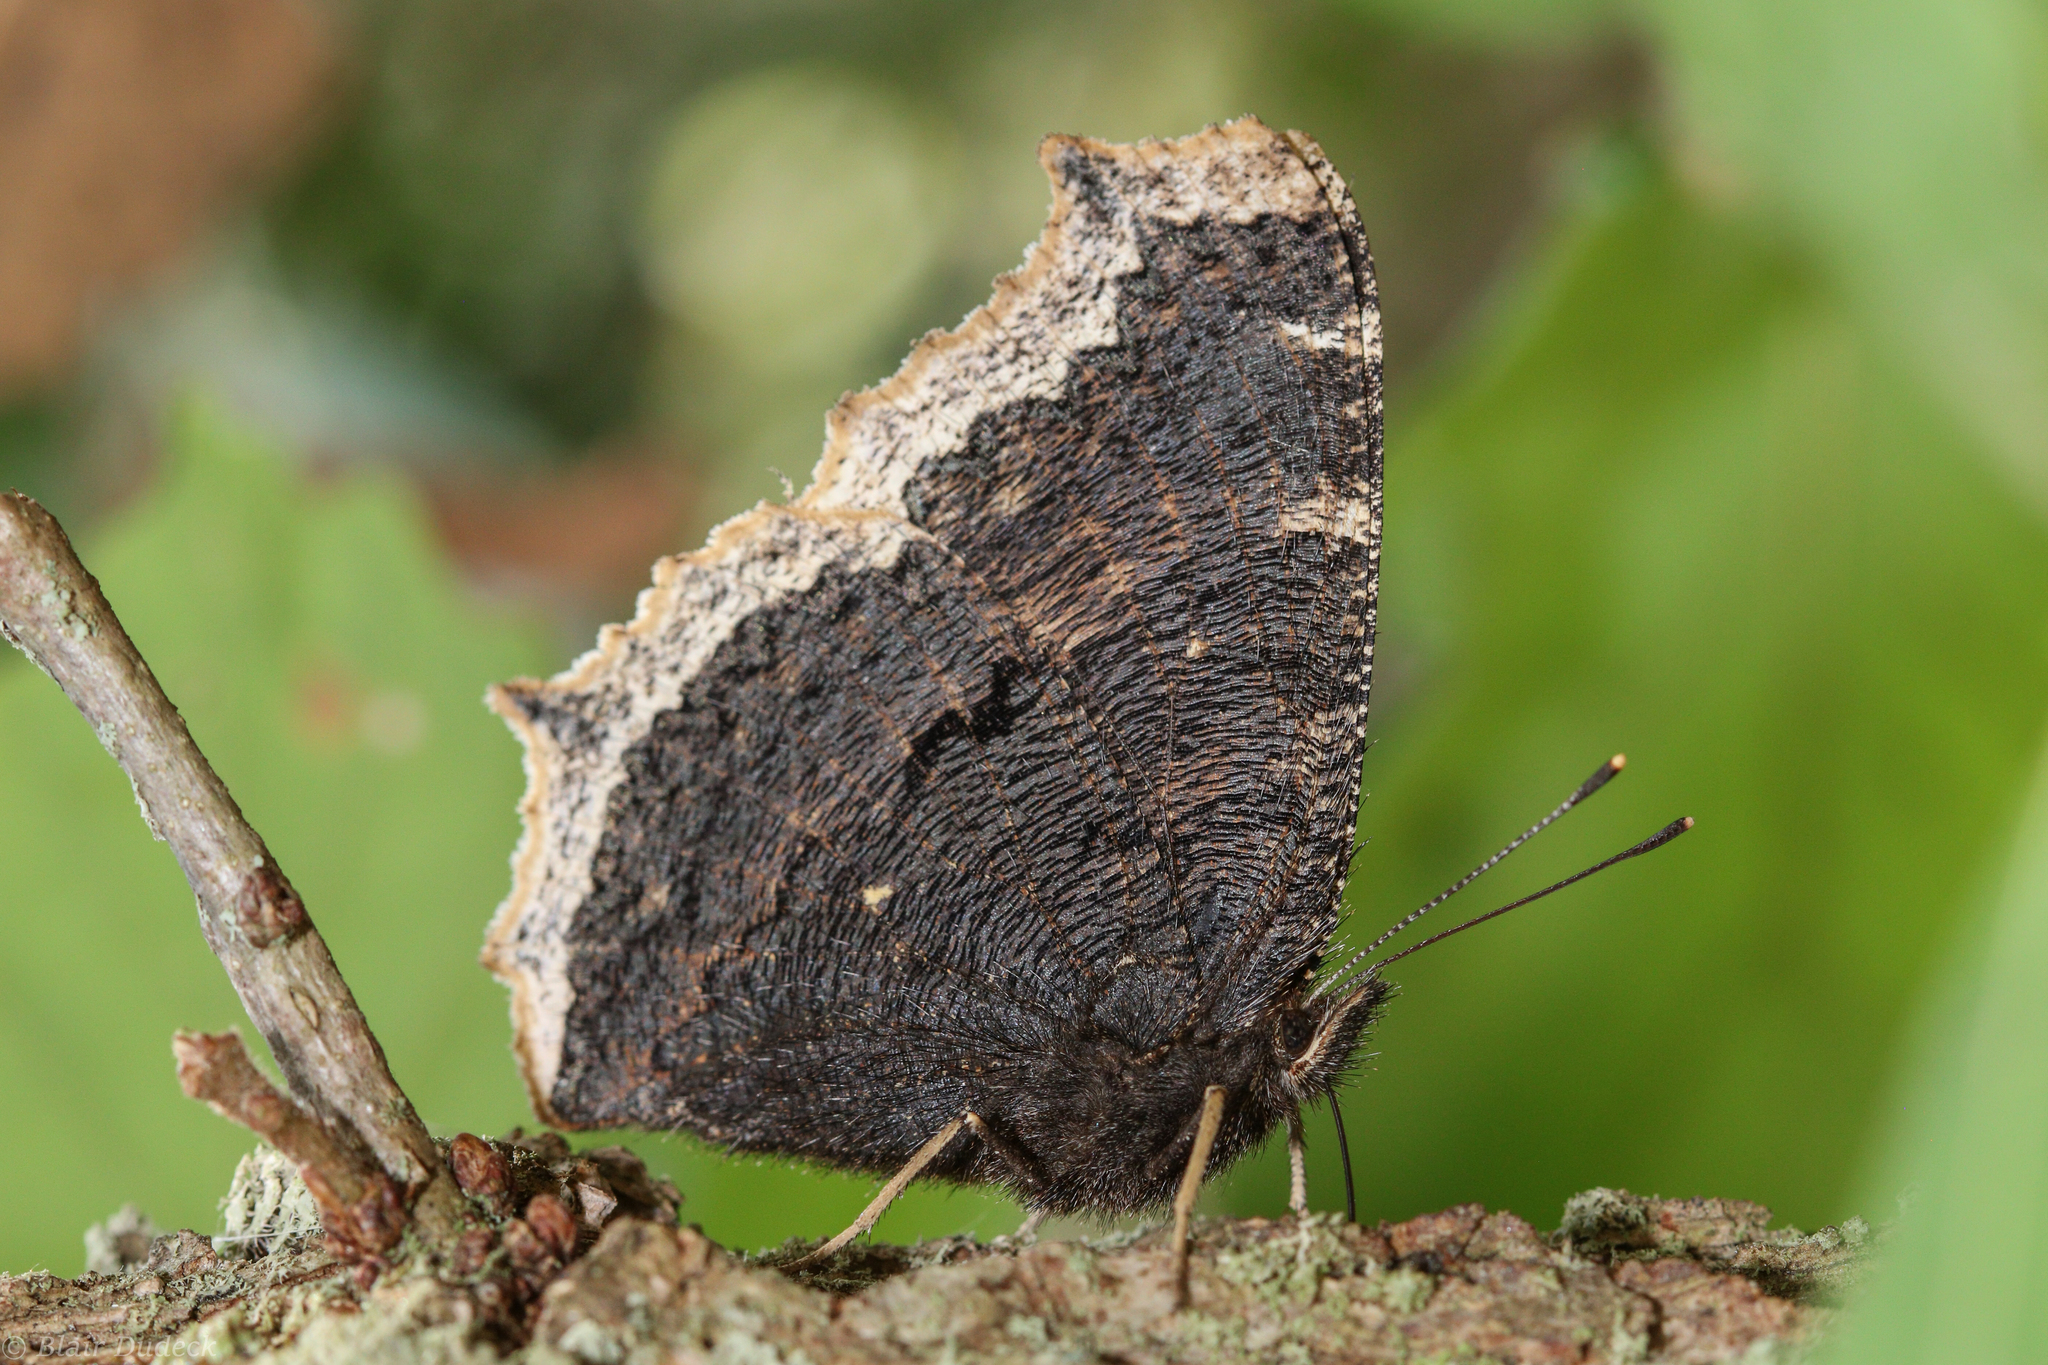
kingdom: Animalia
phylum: Arthropoda
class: Insecta
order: Lepidoptera
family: Nymphalidae
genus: Nymphalis
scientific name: Nymphalis antiopa
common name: Camberwell beauty
